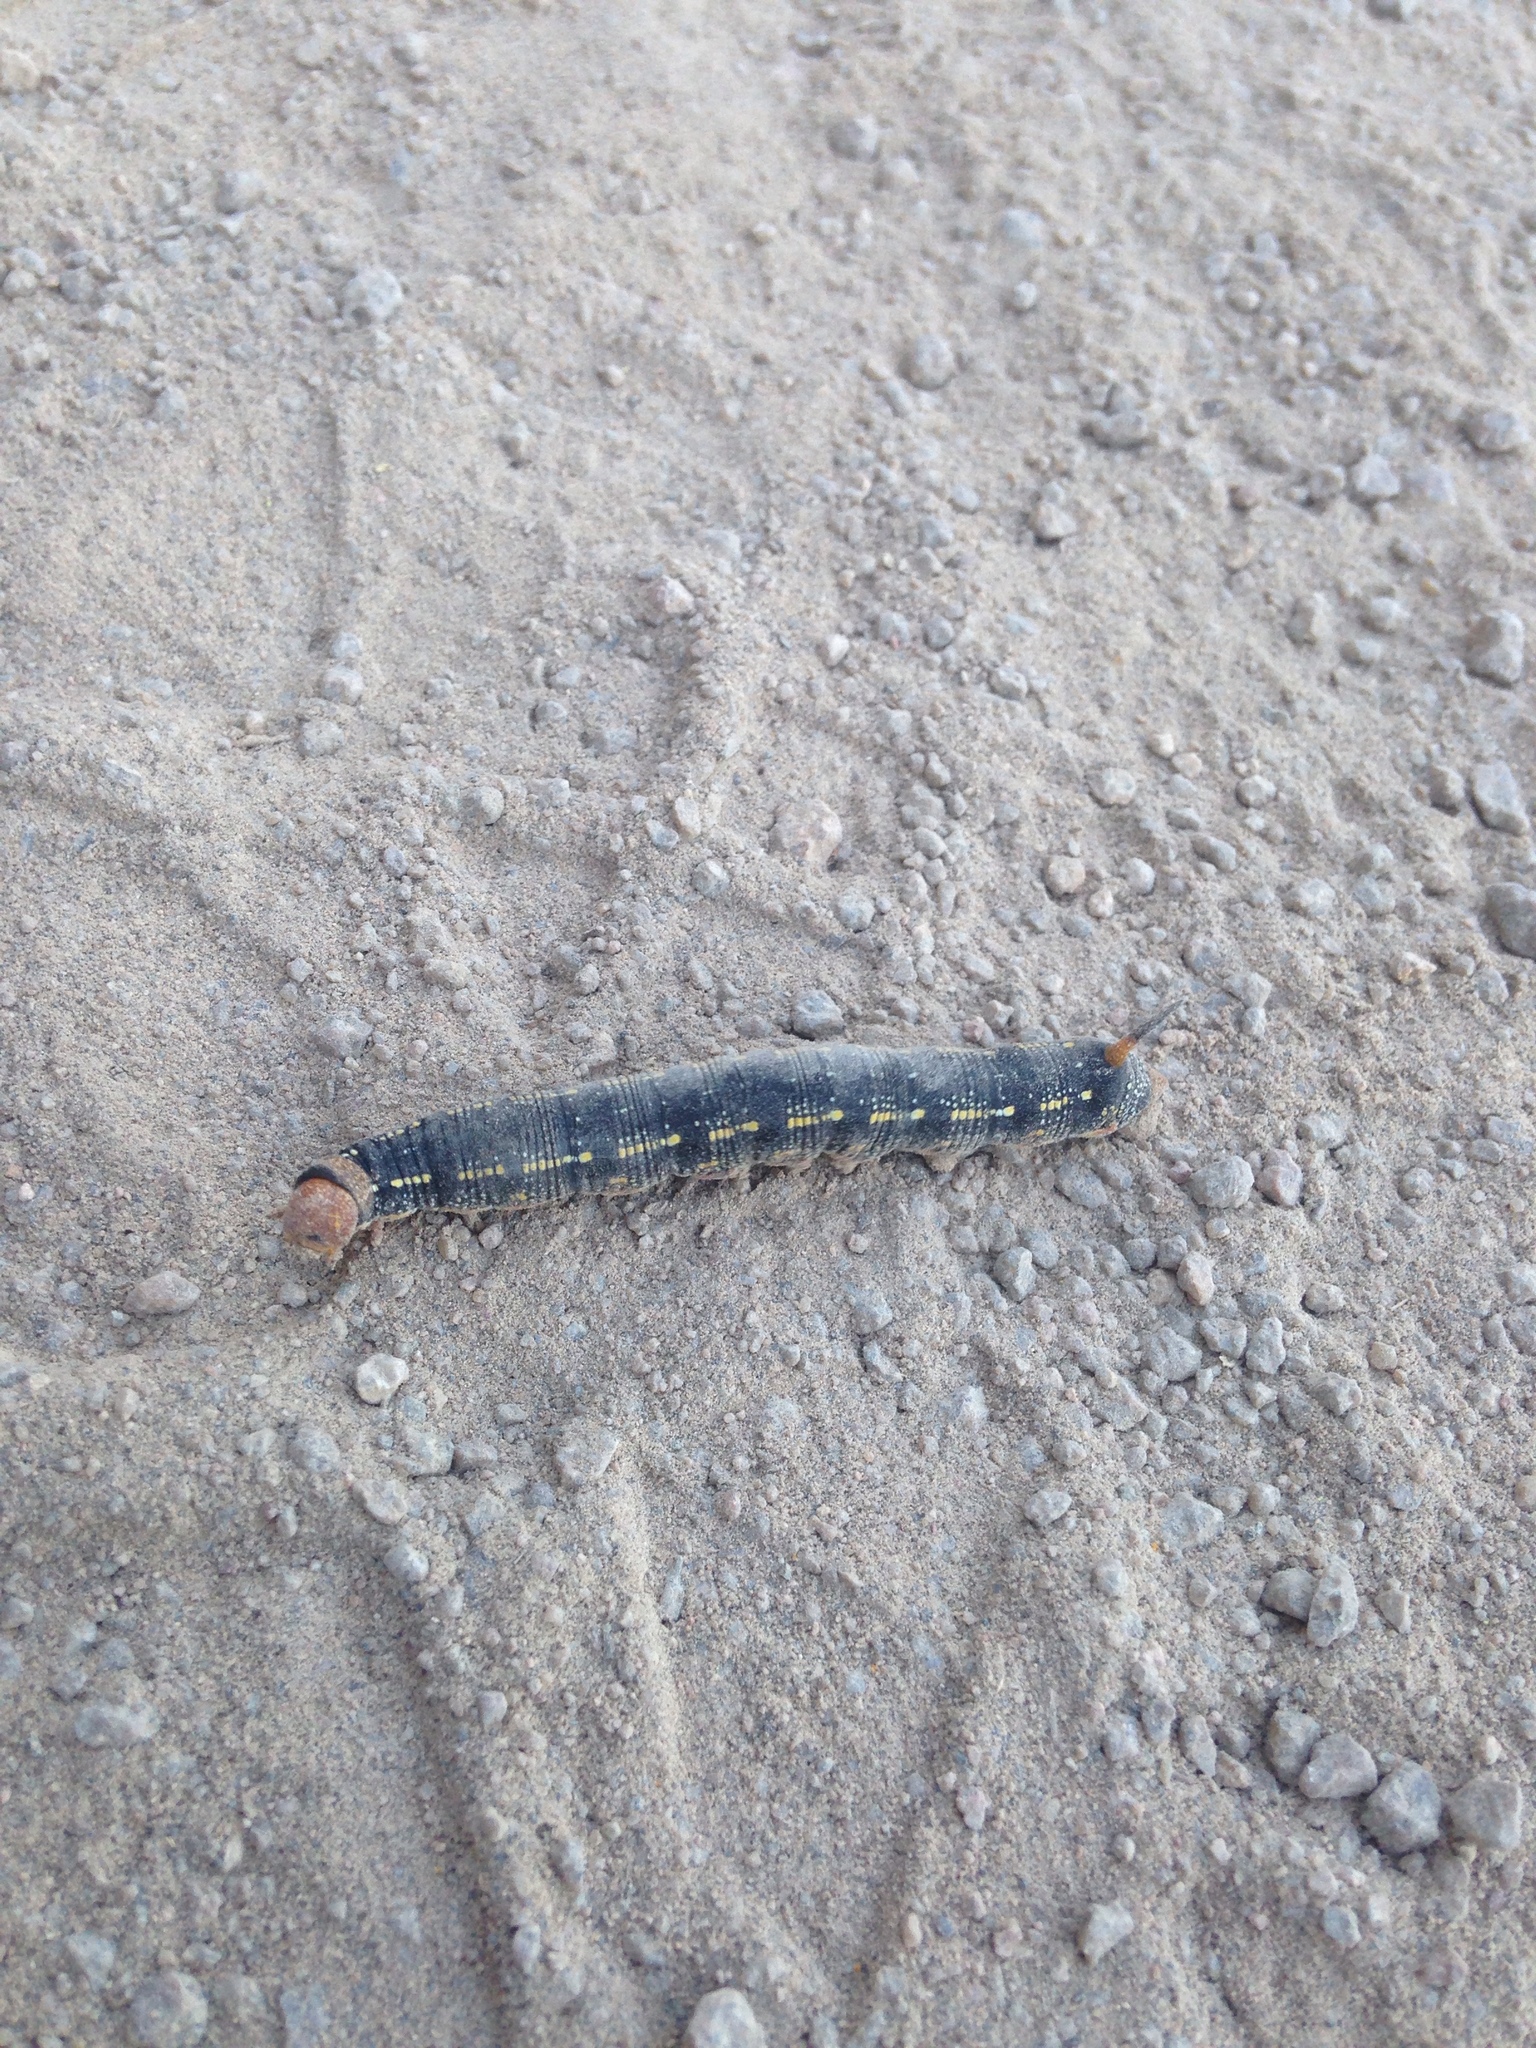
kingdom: Animalia
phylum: Arthropoda
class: Insecta
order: Lepidoptera
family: Sphingidae
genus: Hyles
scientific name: Hyles lineata
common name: White-lined sphinx
